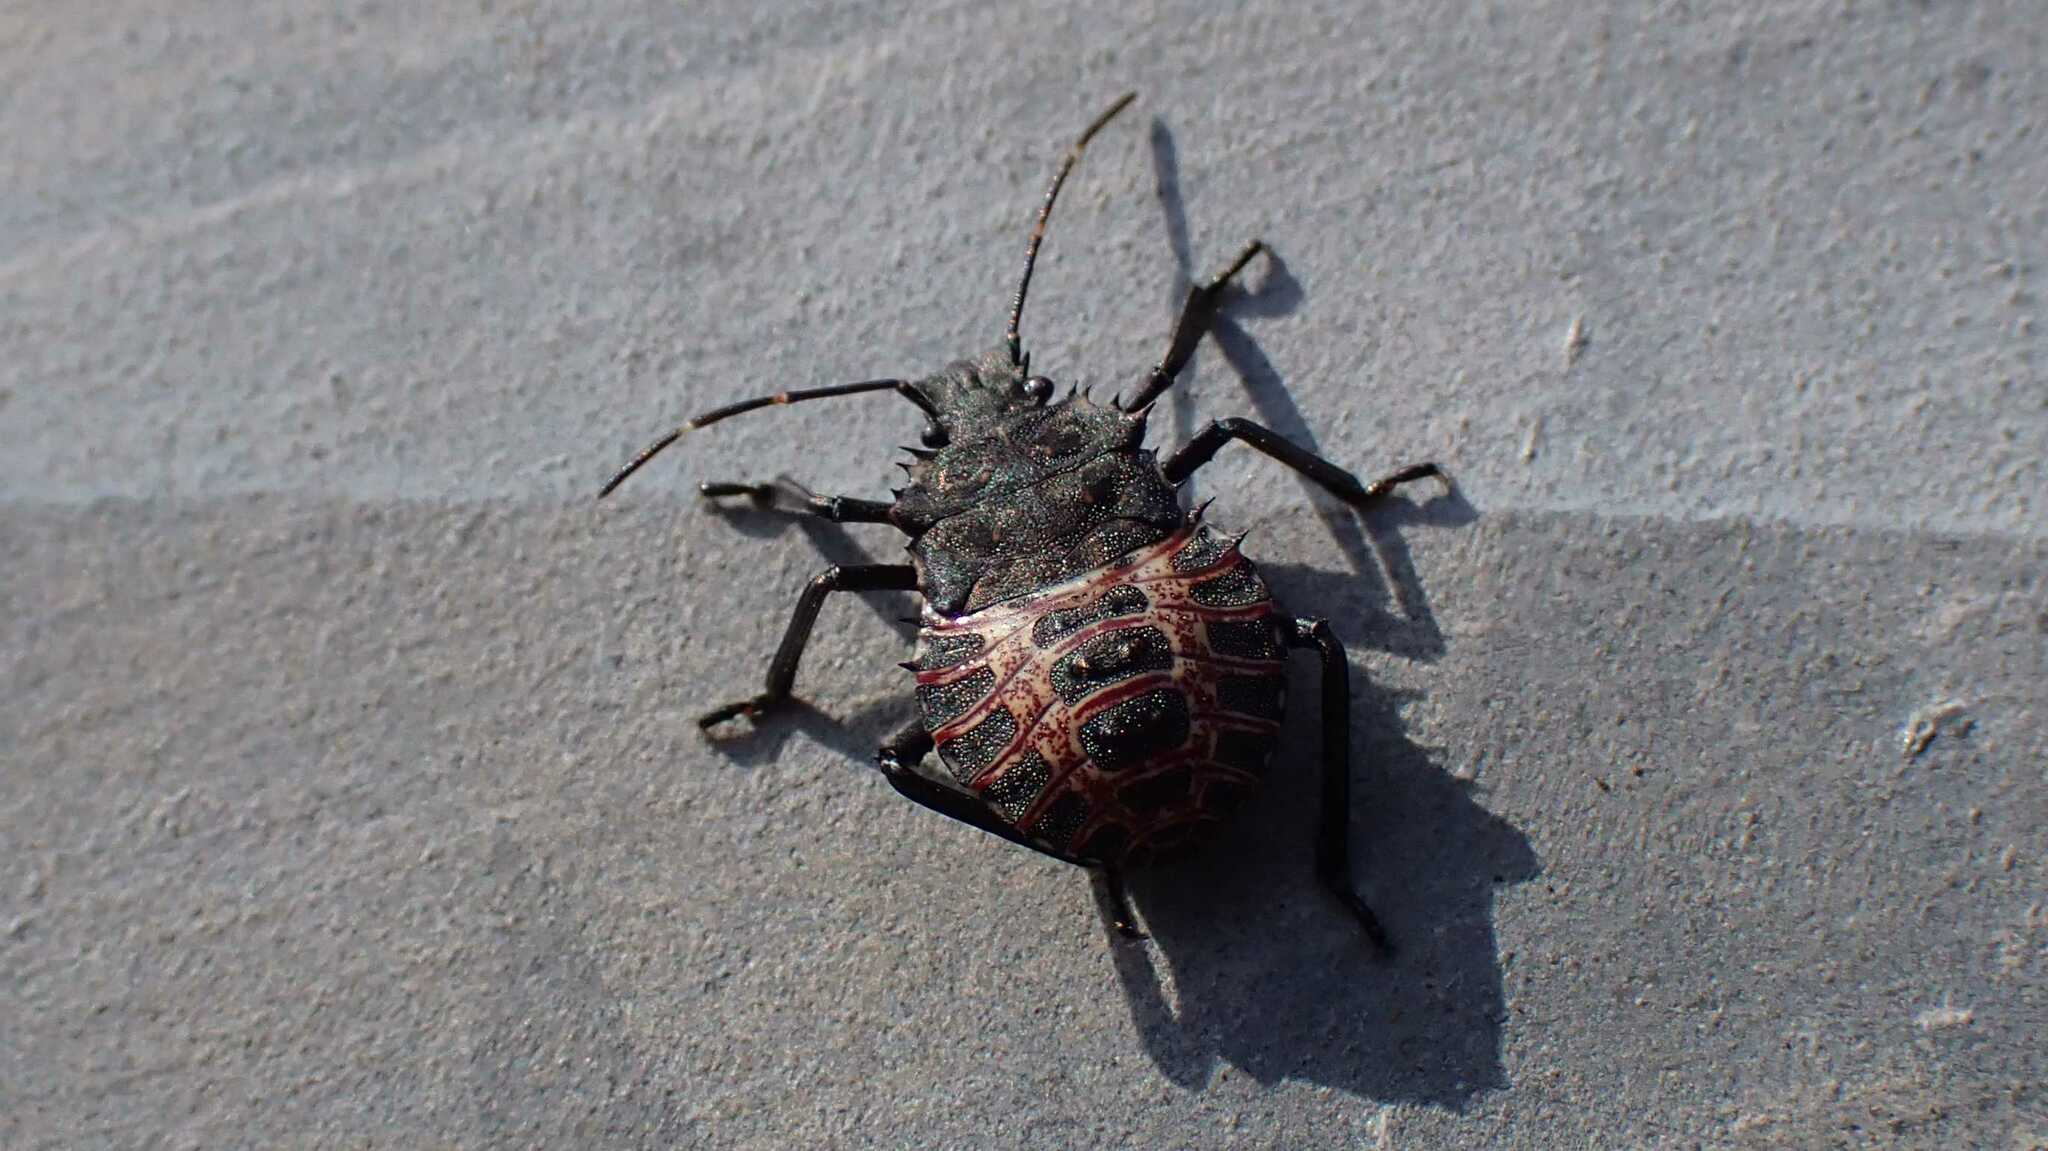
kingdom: Animalia
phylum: Arthropoda
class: Insecta
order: Hemiptera
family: Pentatomidae
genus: Halyomorpha
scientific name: Halyomorpha halys
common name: Brown marmorated stink bug
